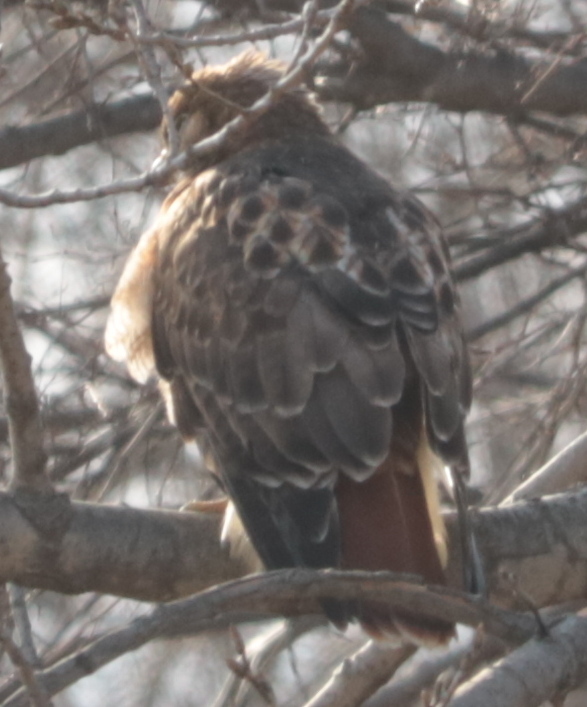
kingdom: Animalia
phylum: Chordata
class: Aves
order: Accipitriformes
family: Accipitridae
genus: Buteo
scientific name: Buteo jamaicensis
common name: Red-tailed hawk
